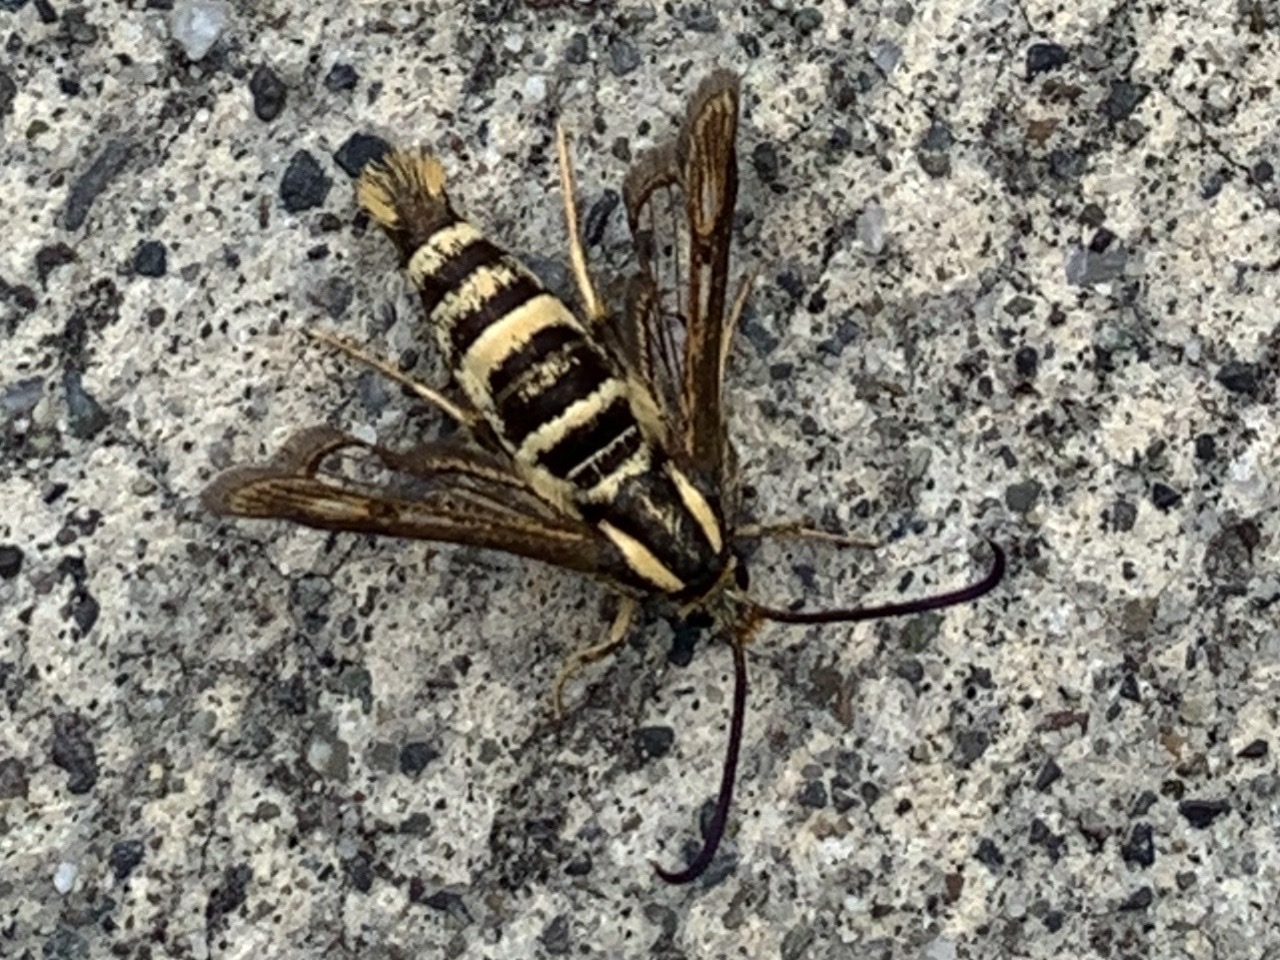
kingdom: Animalia
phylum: Arthropoda
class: Insecta
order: Lepidoptera
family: Sesiidae
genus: Synanthedon
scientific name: Synanthedon bibionipennis
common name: Strawberry crown moth
